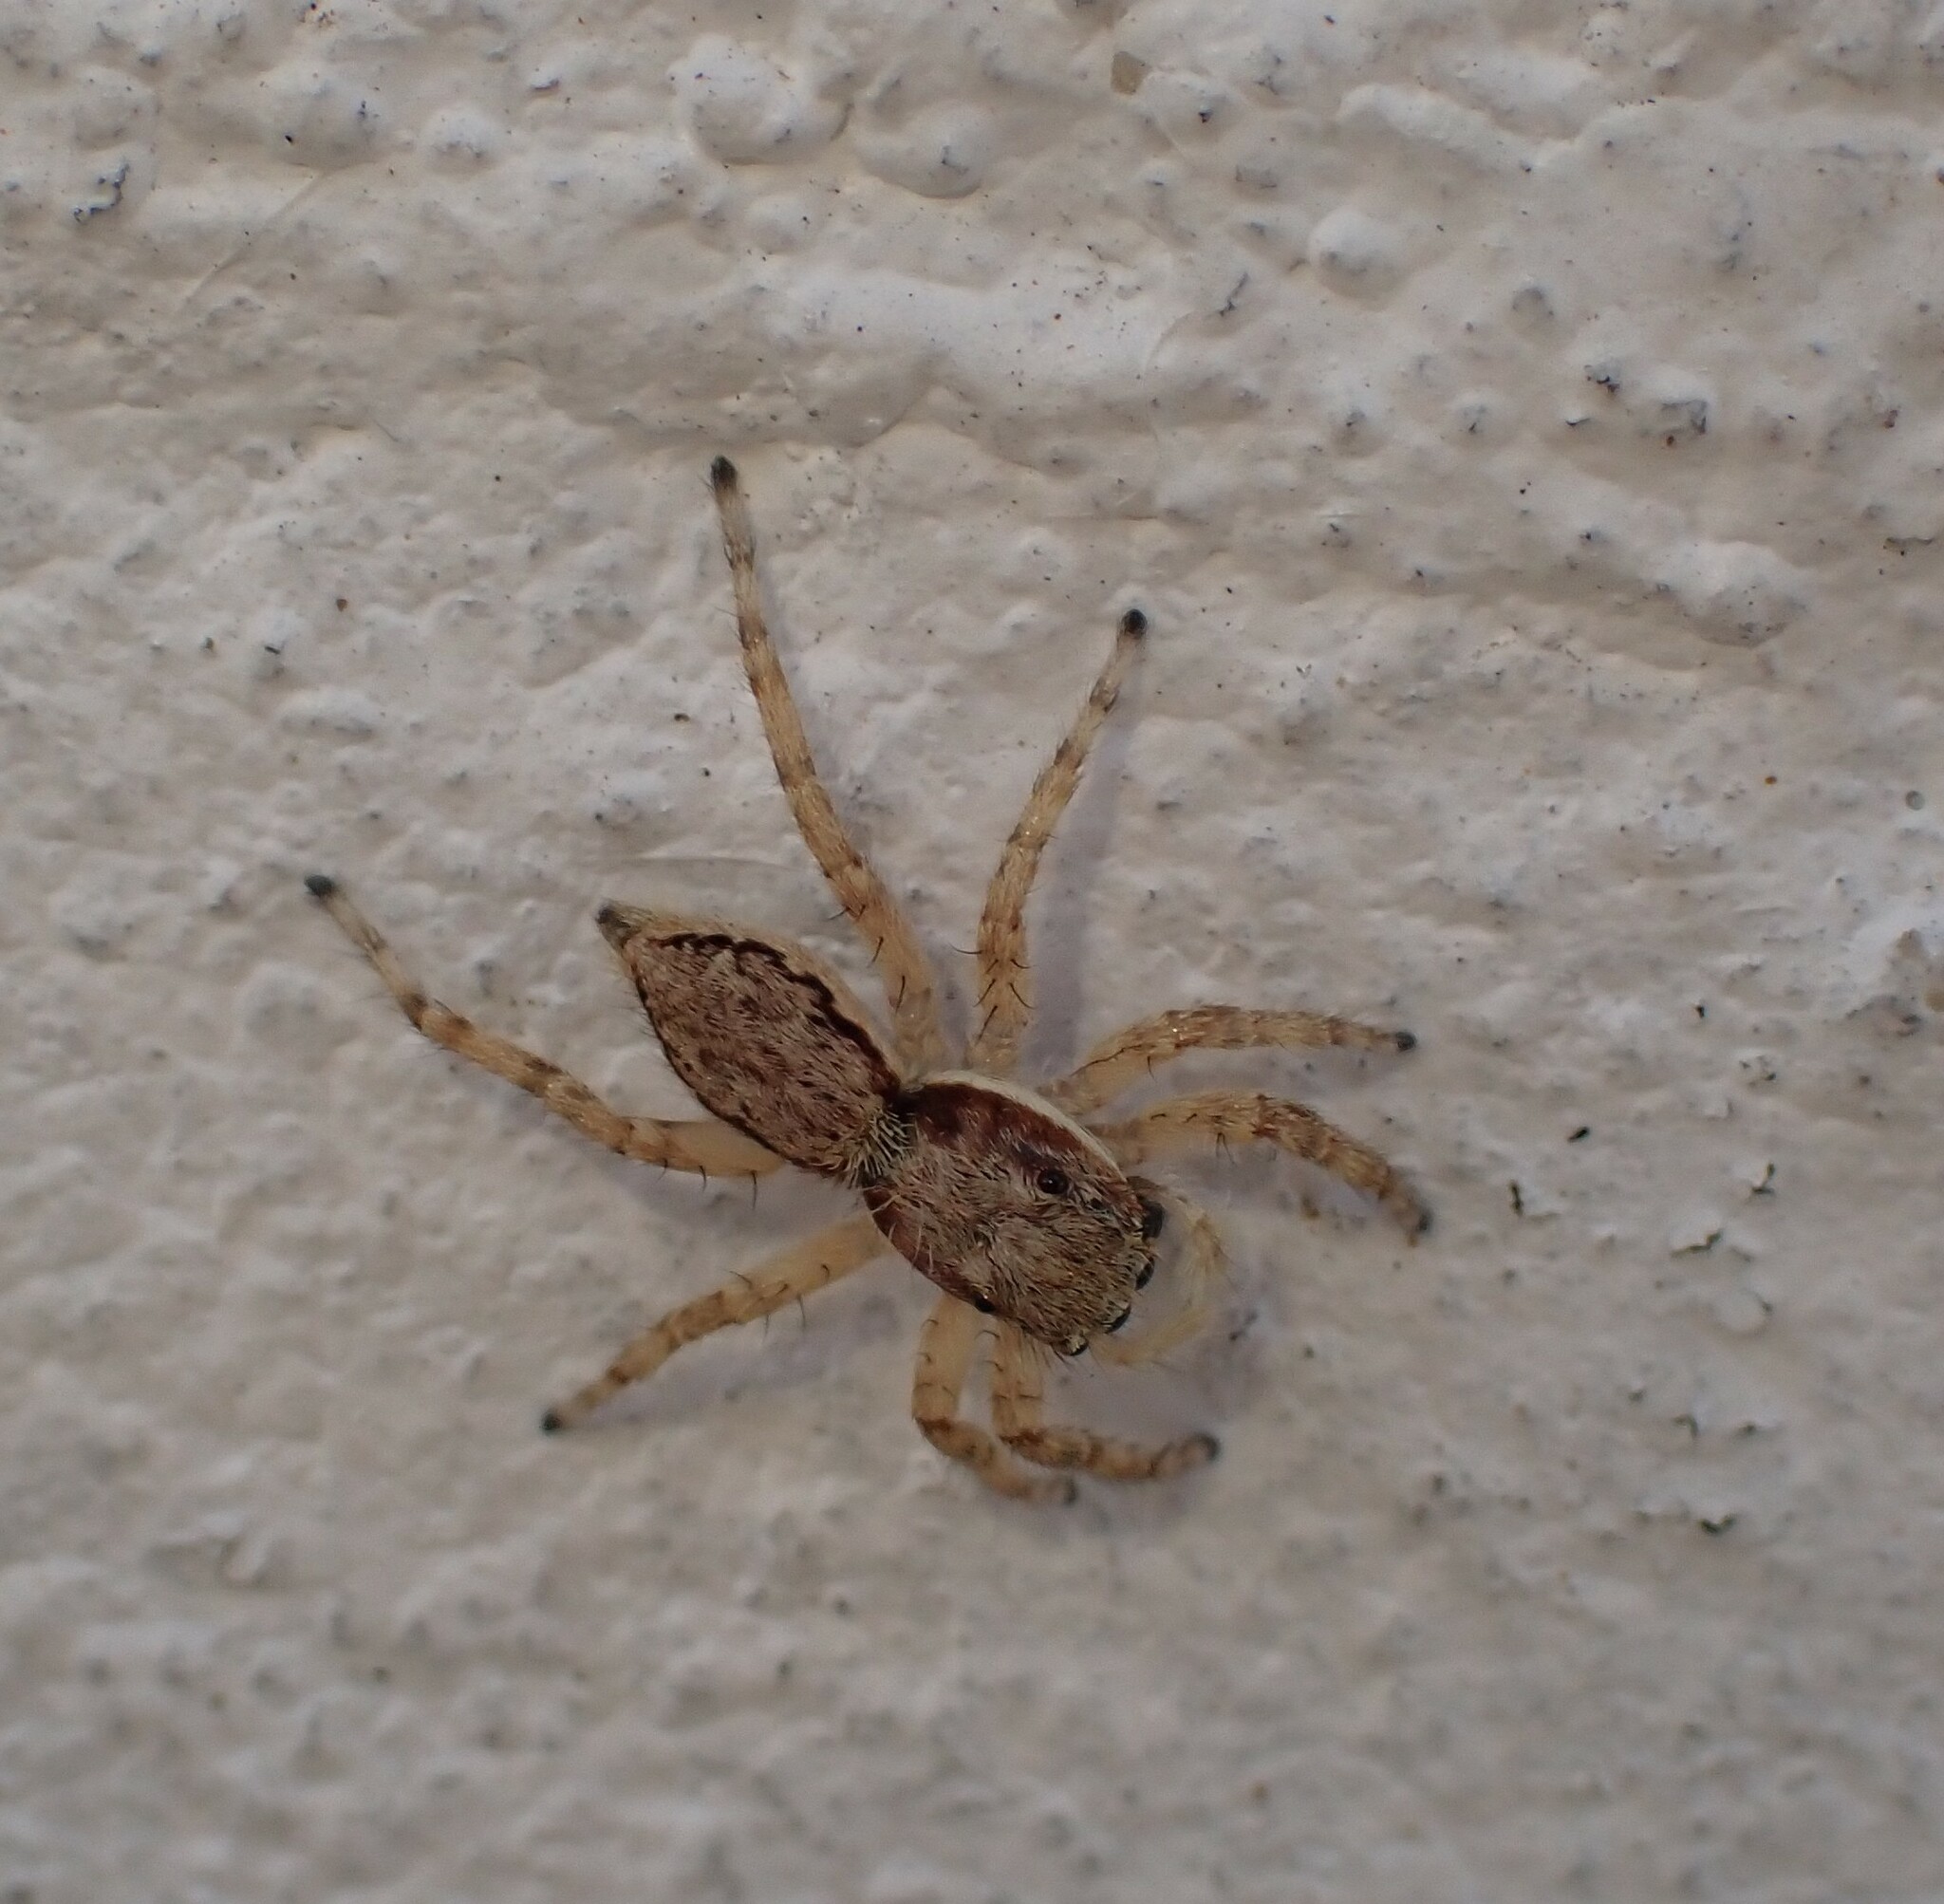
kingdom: Animalia
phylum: Arthropoda
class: Arachnida
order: Araneae
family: Salticidae
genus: Menemerus
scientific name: Menemerus bivittatus
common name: Gray wall jumper
